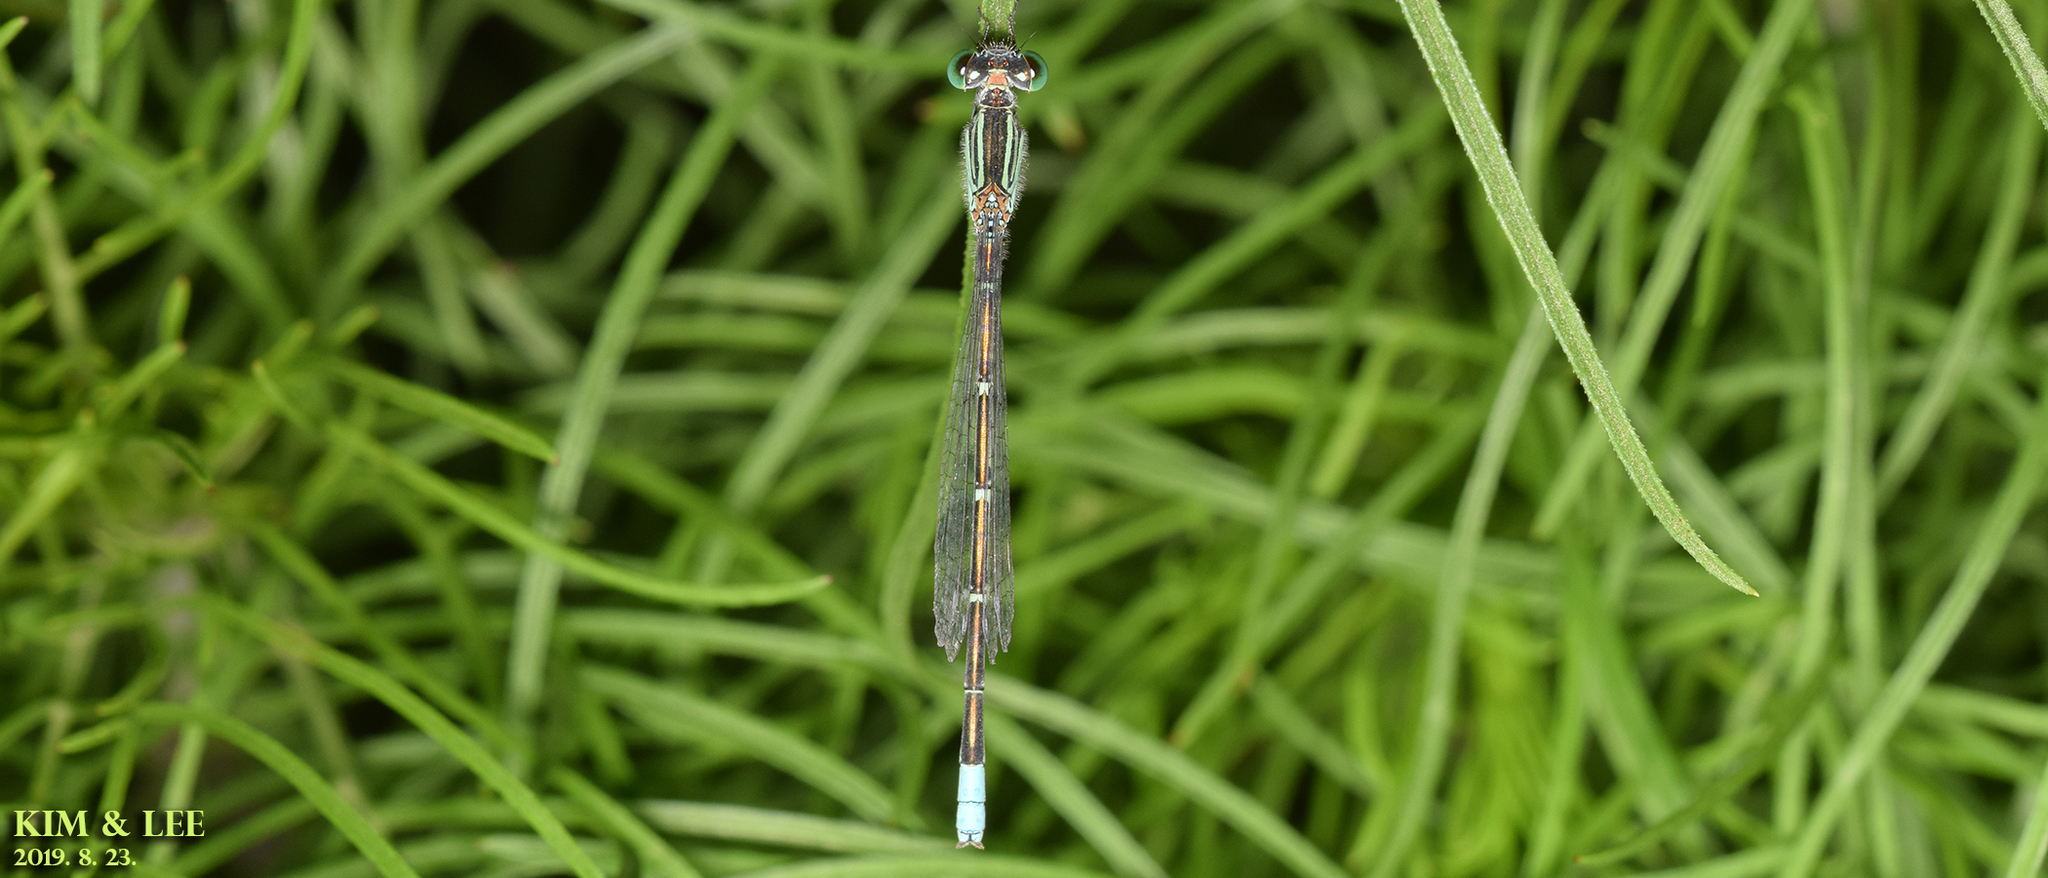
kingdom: Animalia
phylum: Arthropoda
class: Insecta
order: Odonata
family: Coenagrionidae
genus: Paracercion
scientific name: Paracercion hieroglyphicum
